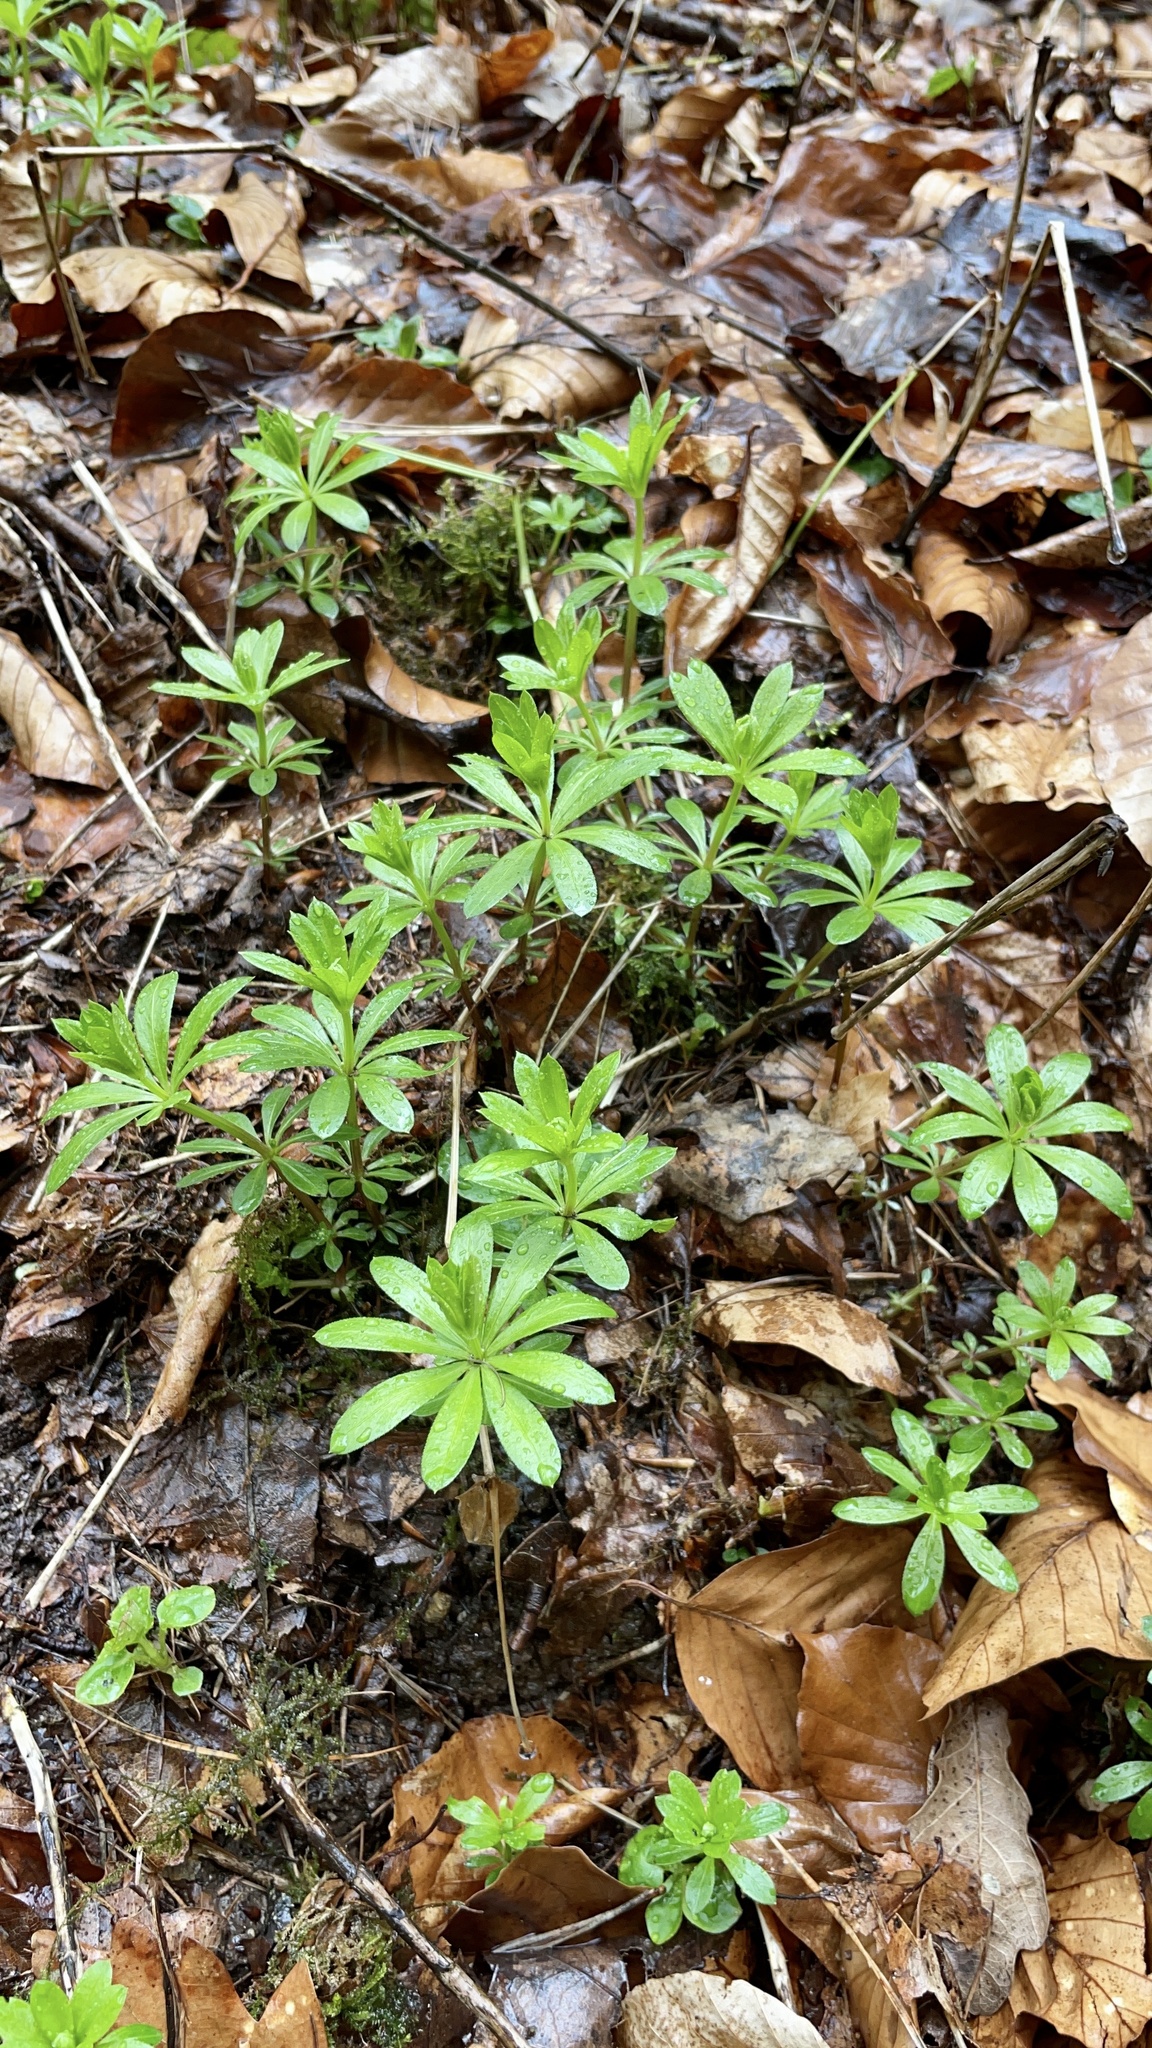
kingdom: Plantae
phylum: Tracheophyta
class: Magnoliopsida
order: Gentianales
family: Rubiaceae
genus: Galium
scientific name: Galium odoratum
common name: Sweet woodruff
